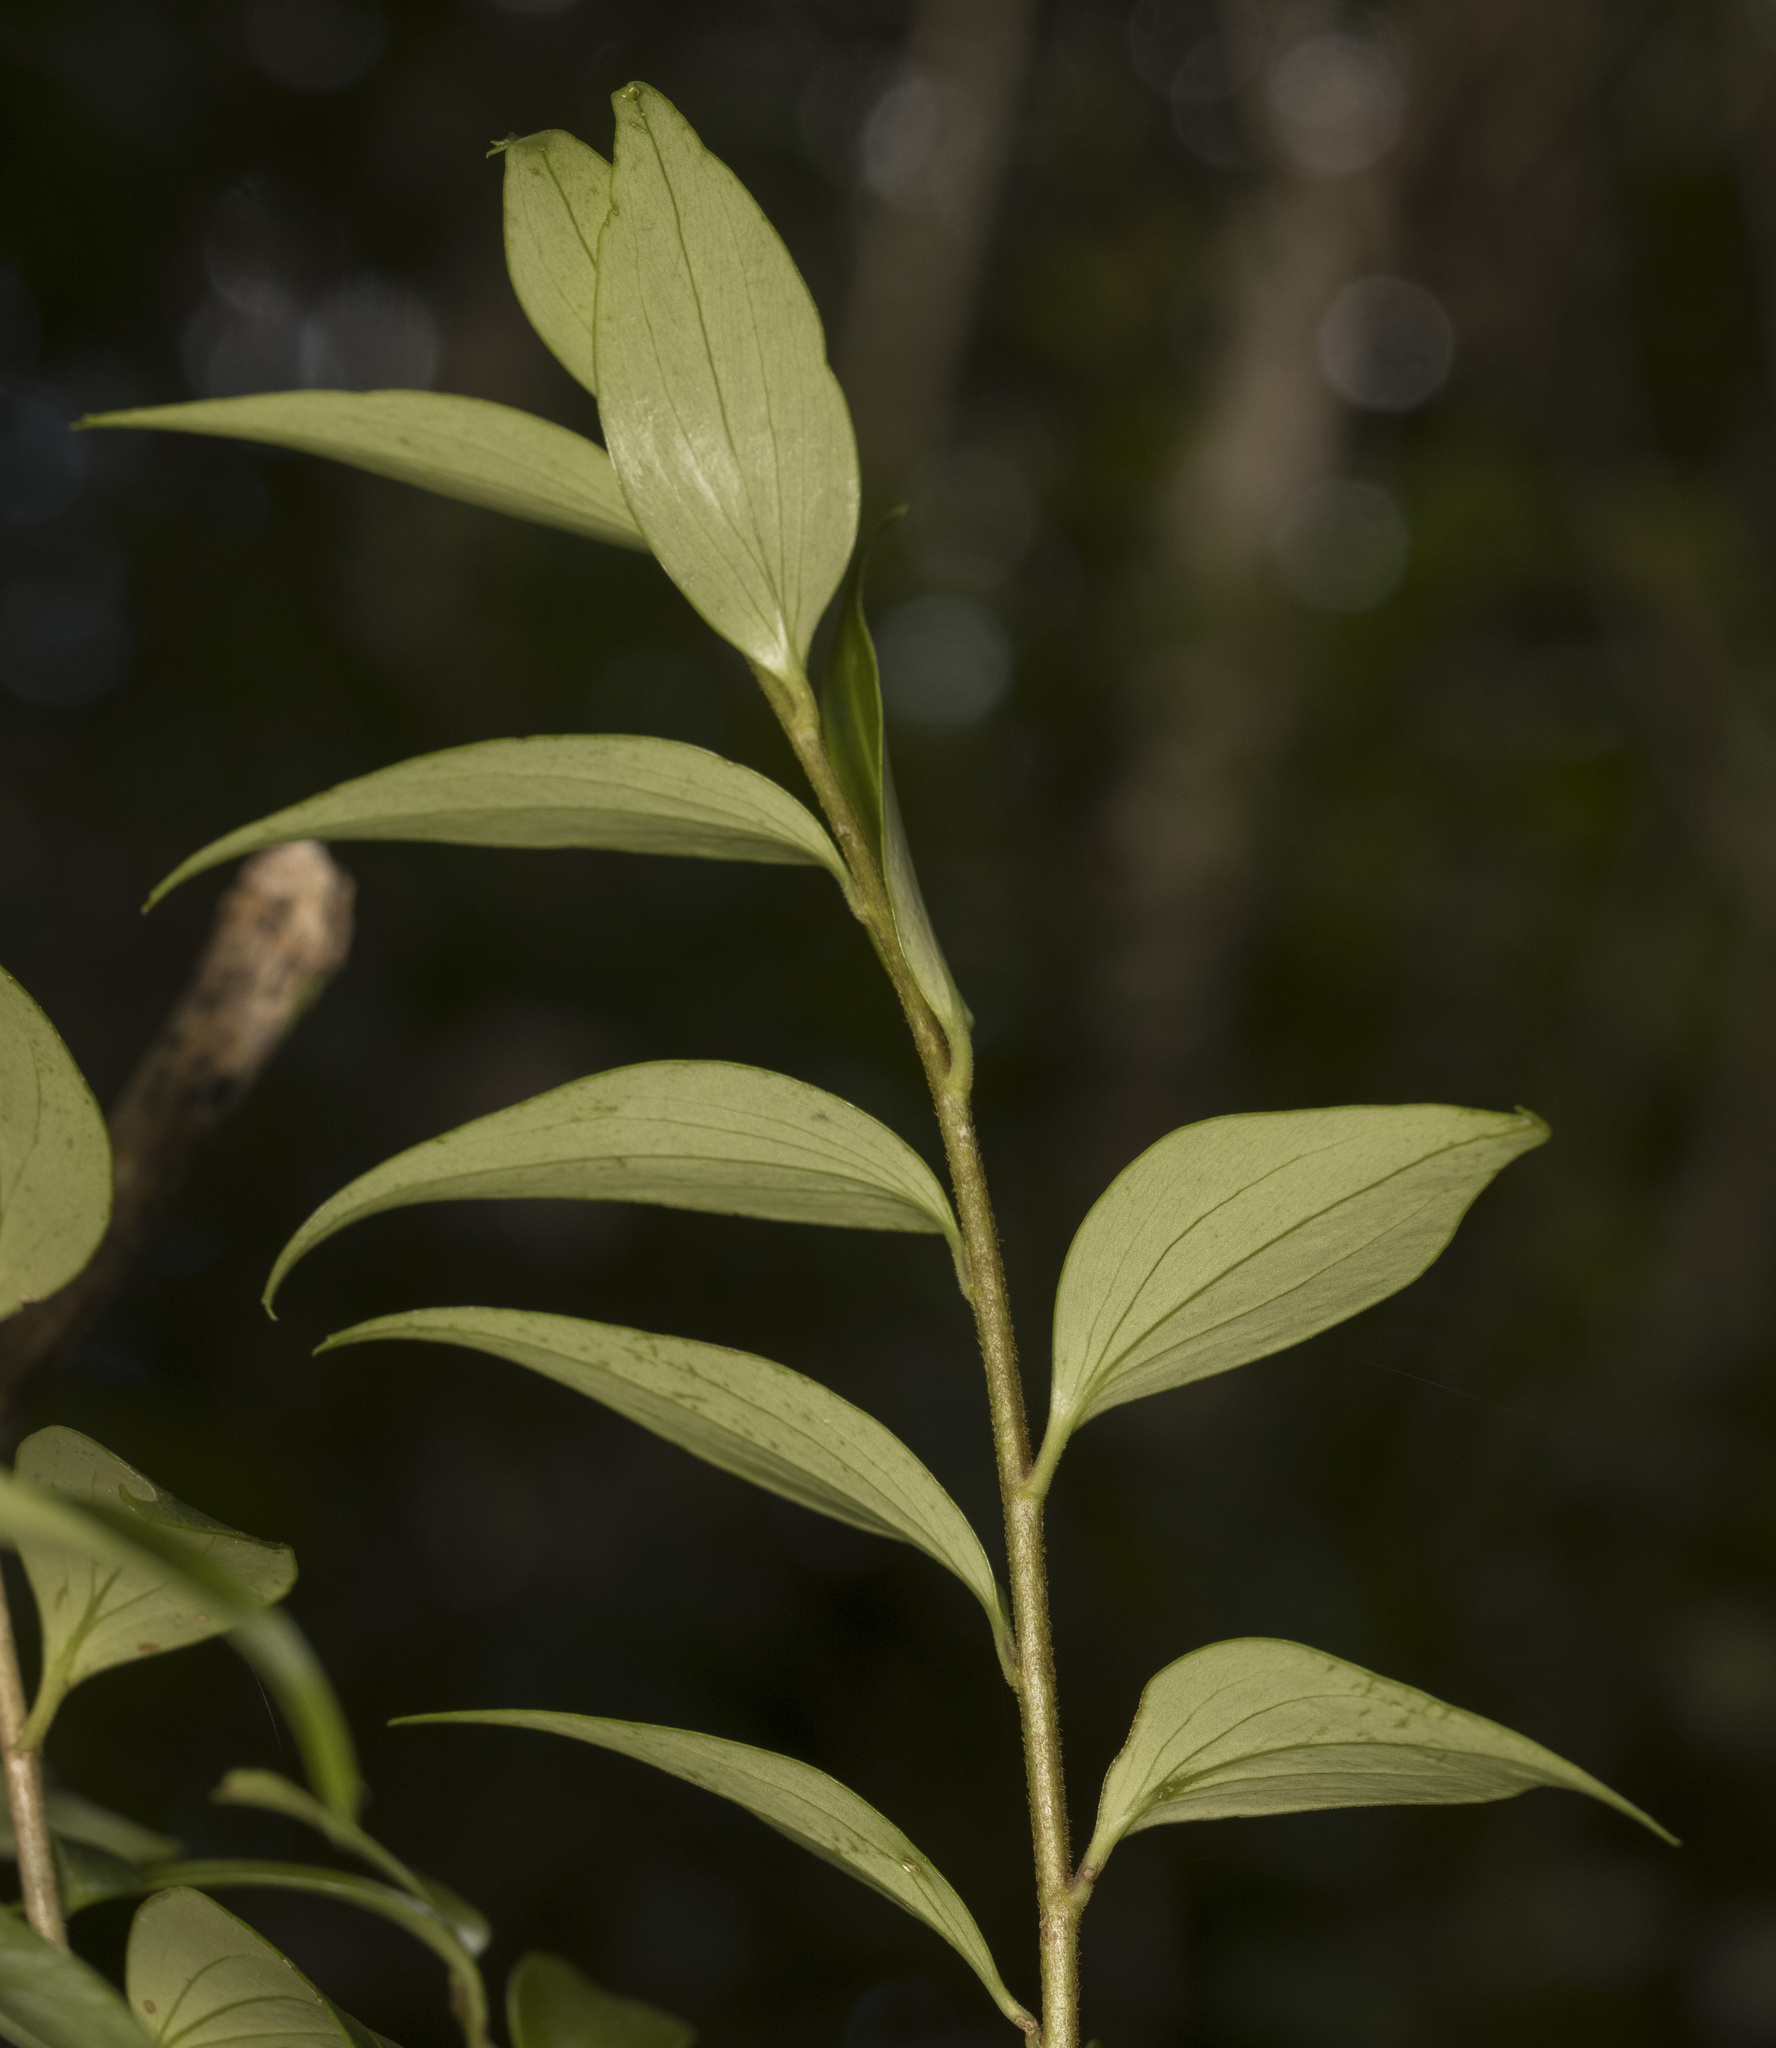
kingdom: Plantae
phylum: Tracheophyta
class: Magnoliopsida
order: Apiales
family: Griseliniaceae
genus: Griselinia
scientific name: Griselinia ruscifolia
